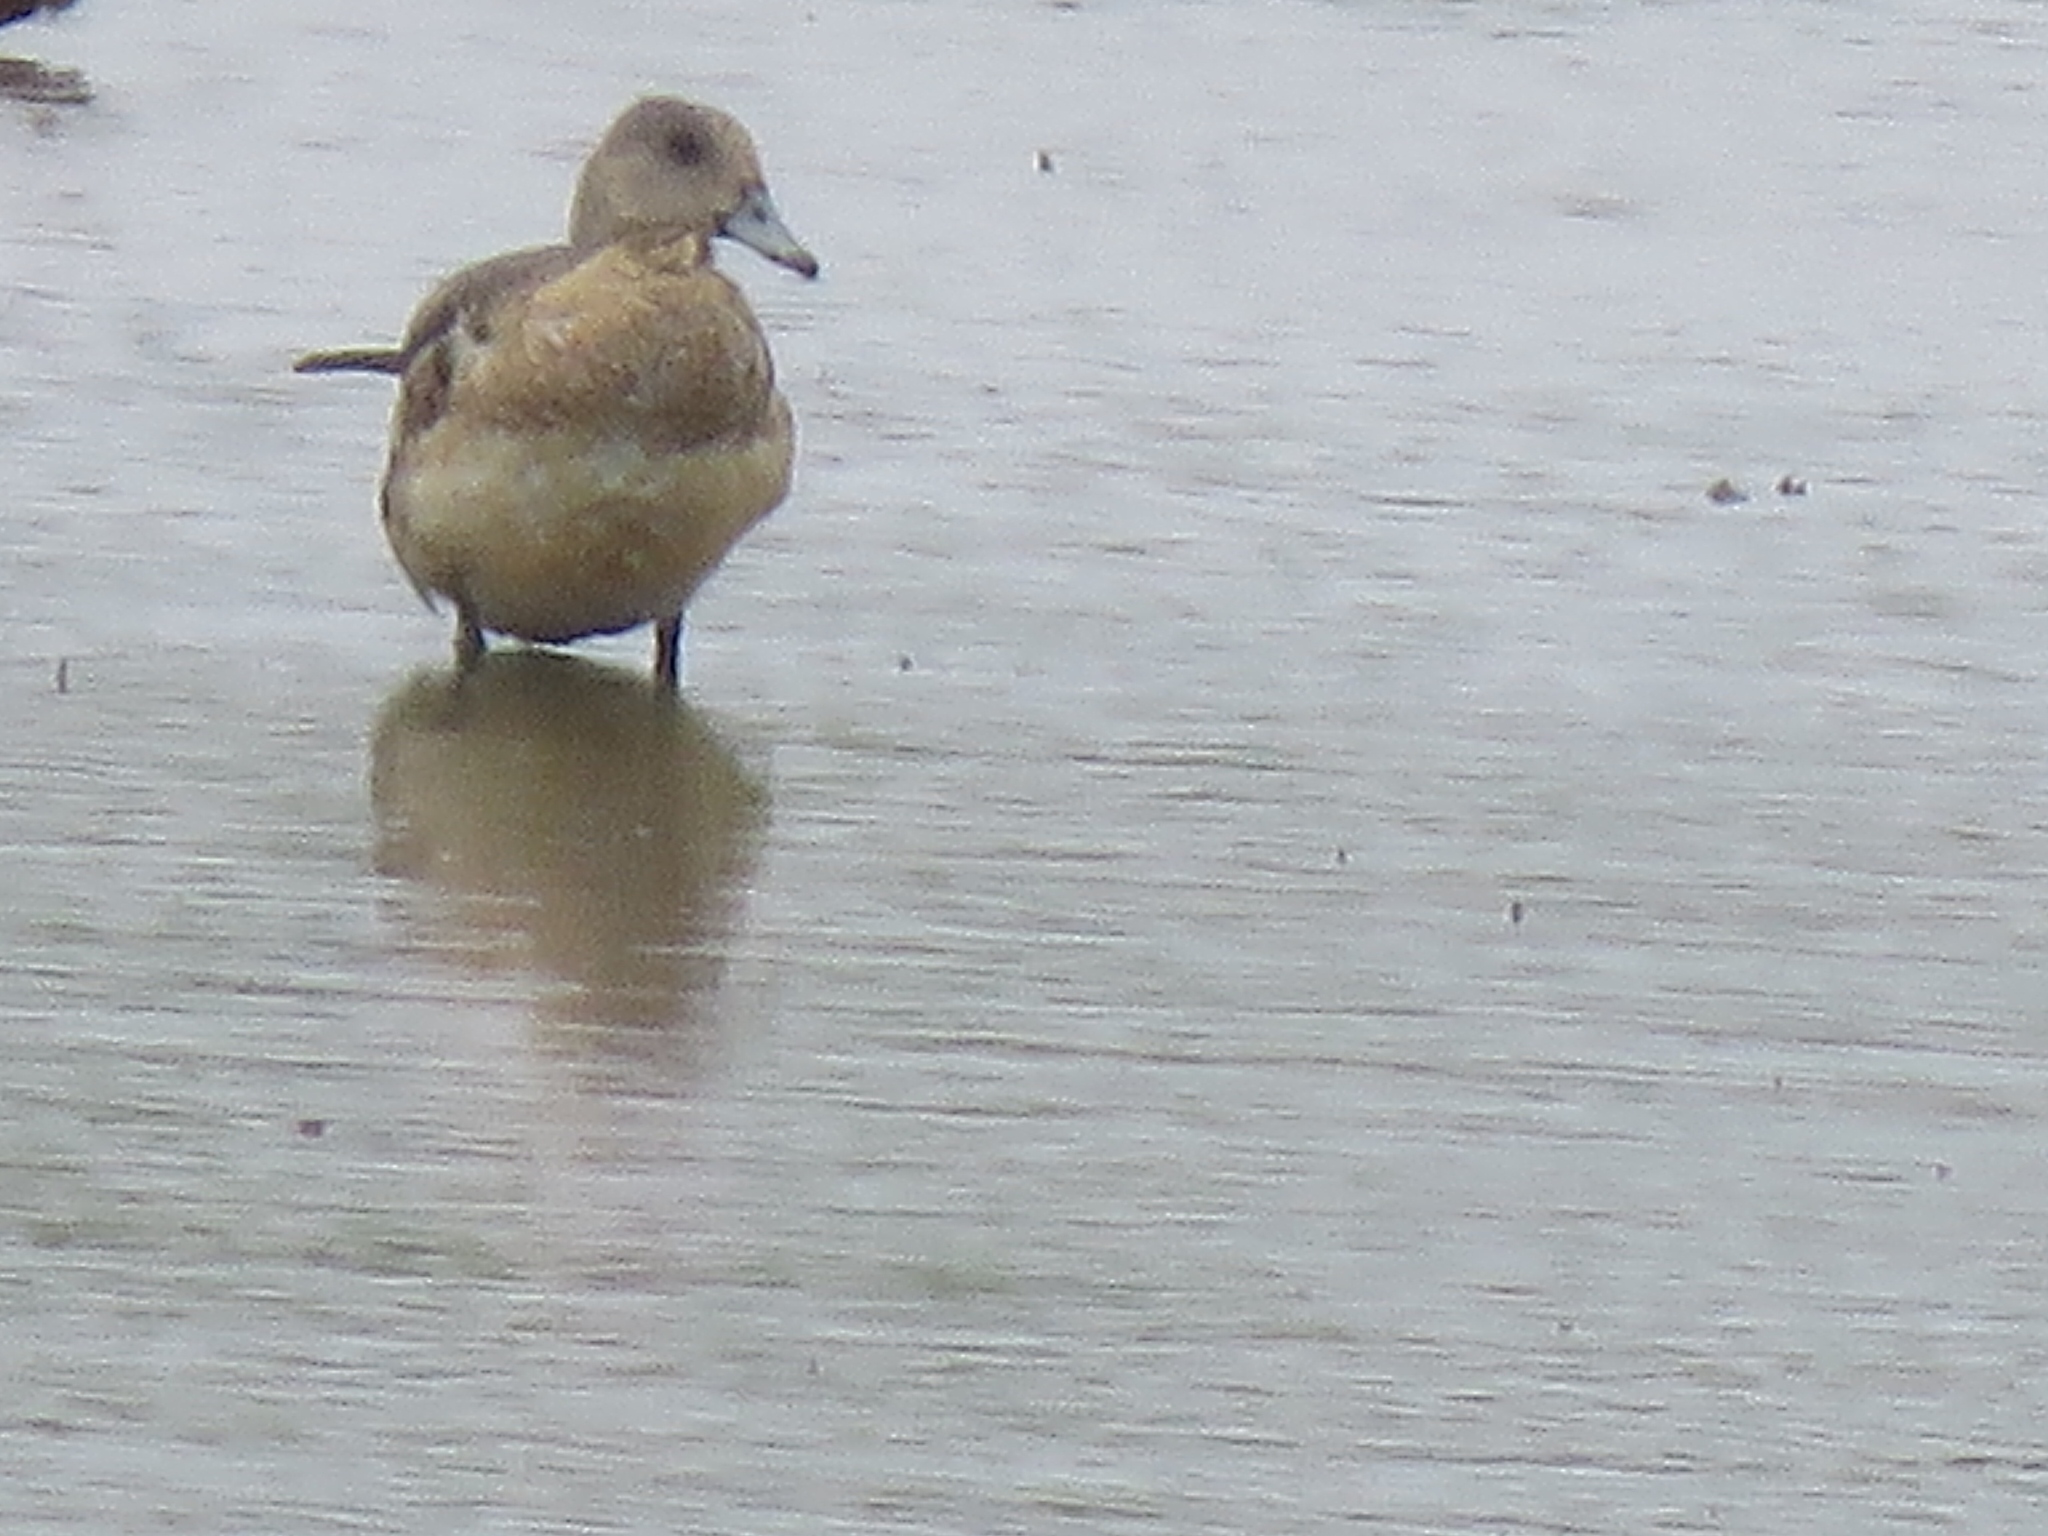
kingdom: Animalia
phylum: Chordata
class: Aves
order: Anseriformes
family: Anatidae
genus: Mareca
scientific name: Mareca americana
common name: American wigeon
